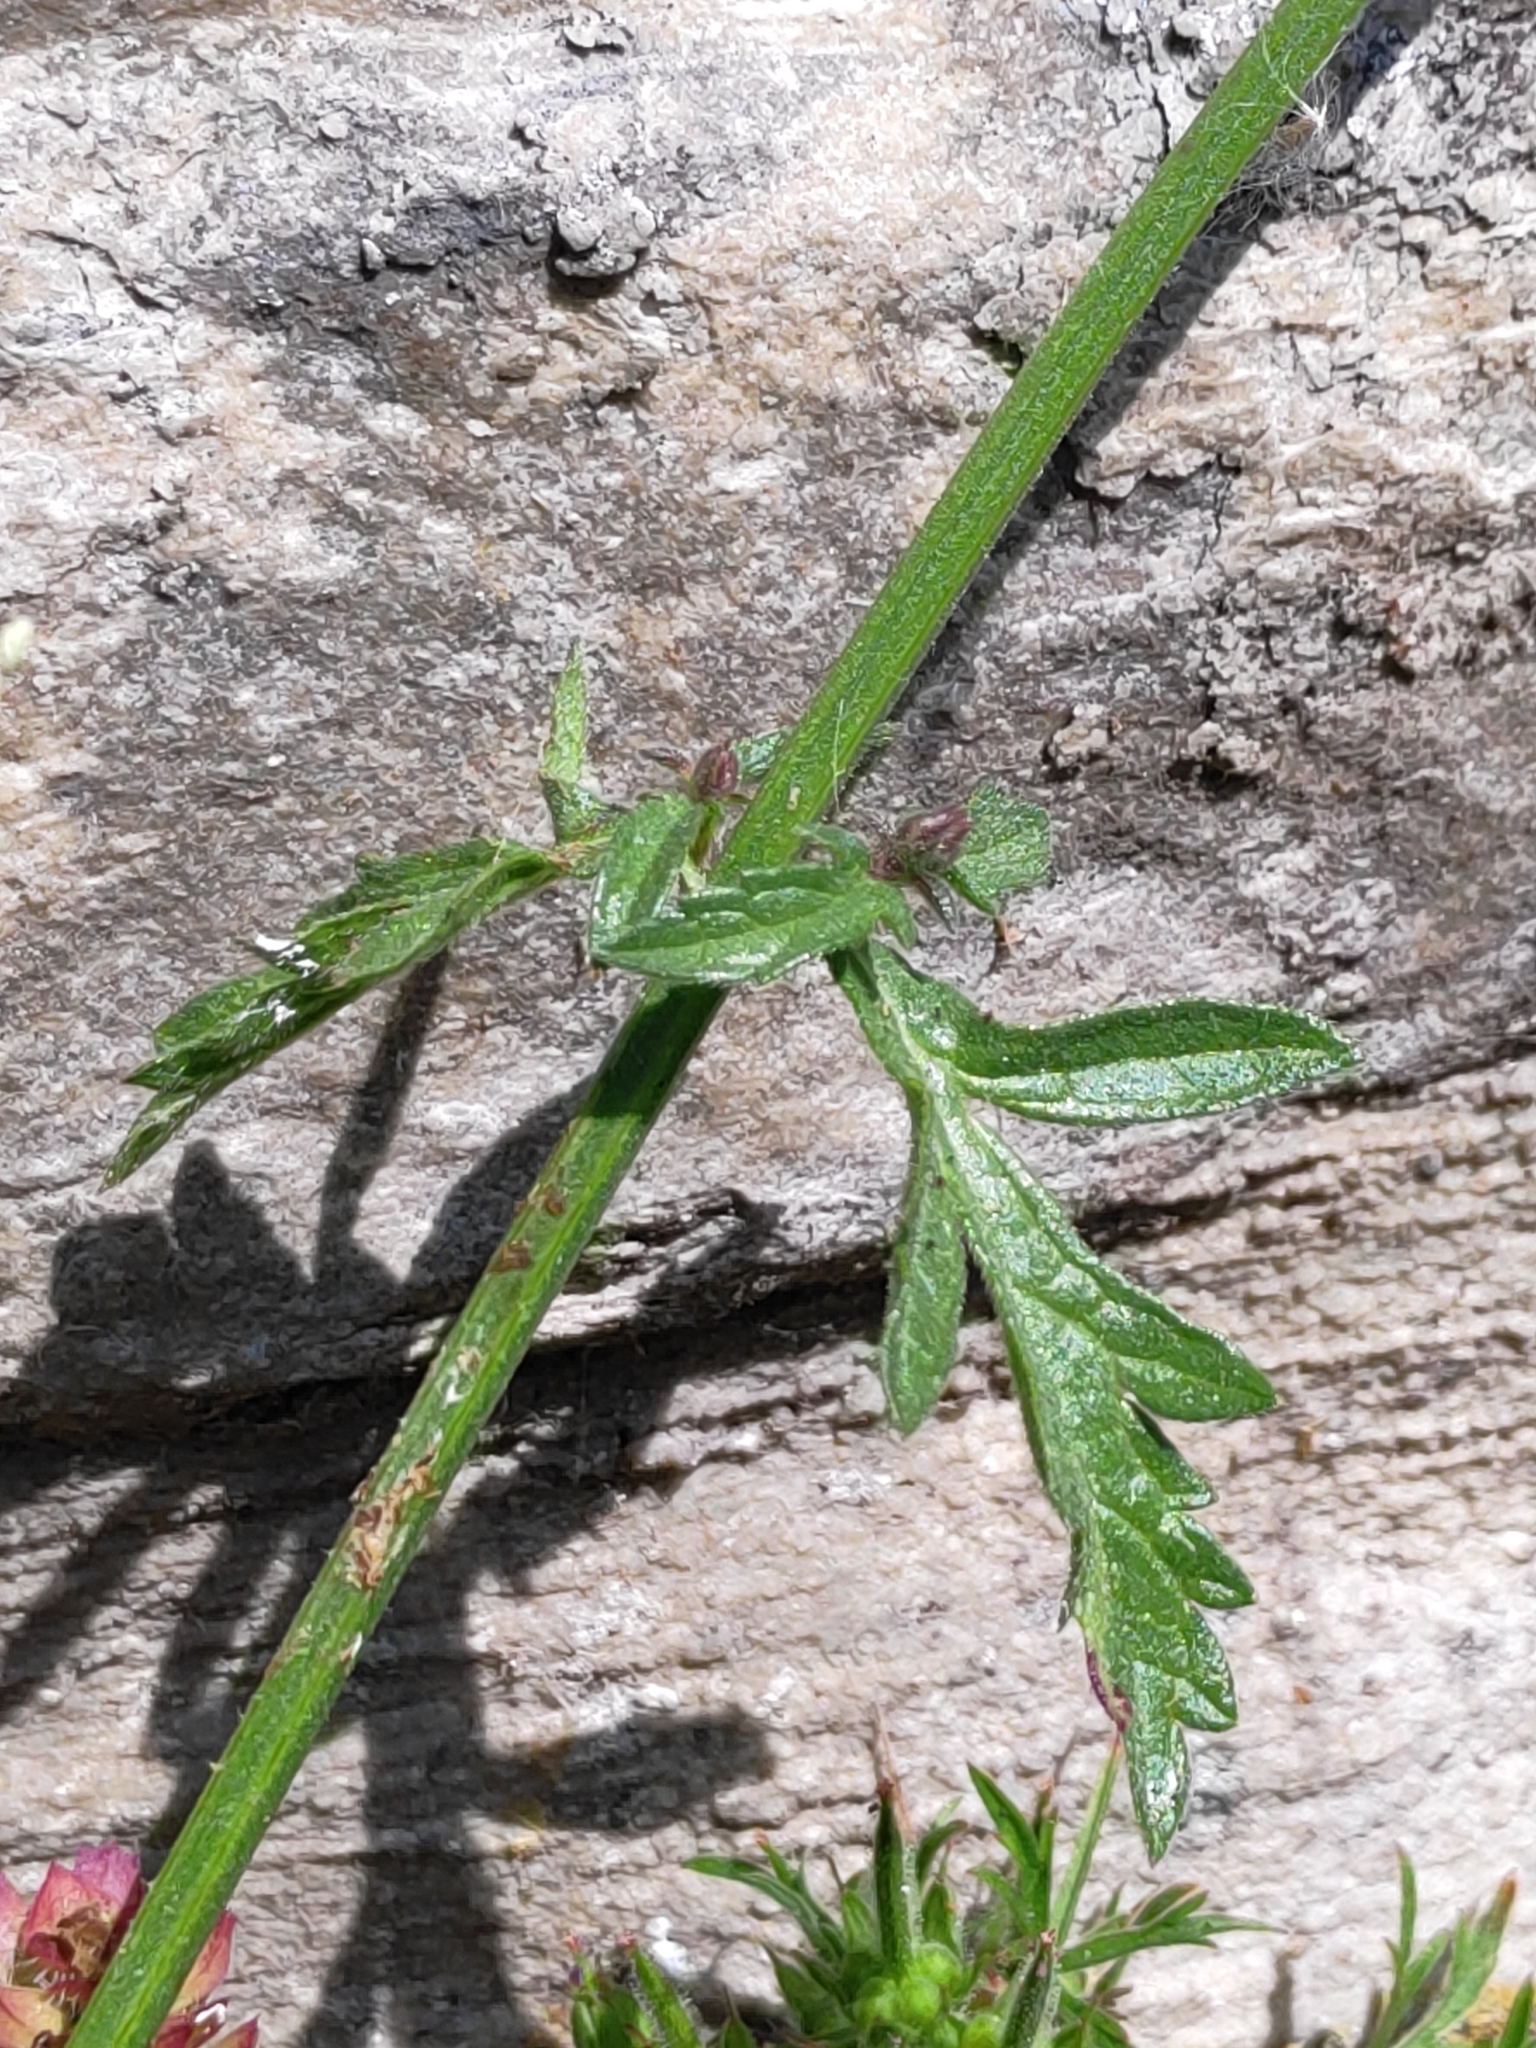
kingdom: Plantae
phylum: Tracheophyta
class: Magnoliopsida
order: Lamiales
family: Verbenaceae
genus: Verbena
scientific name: Verbena officinalis
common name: Vervain
